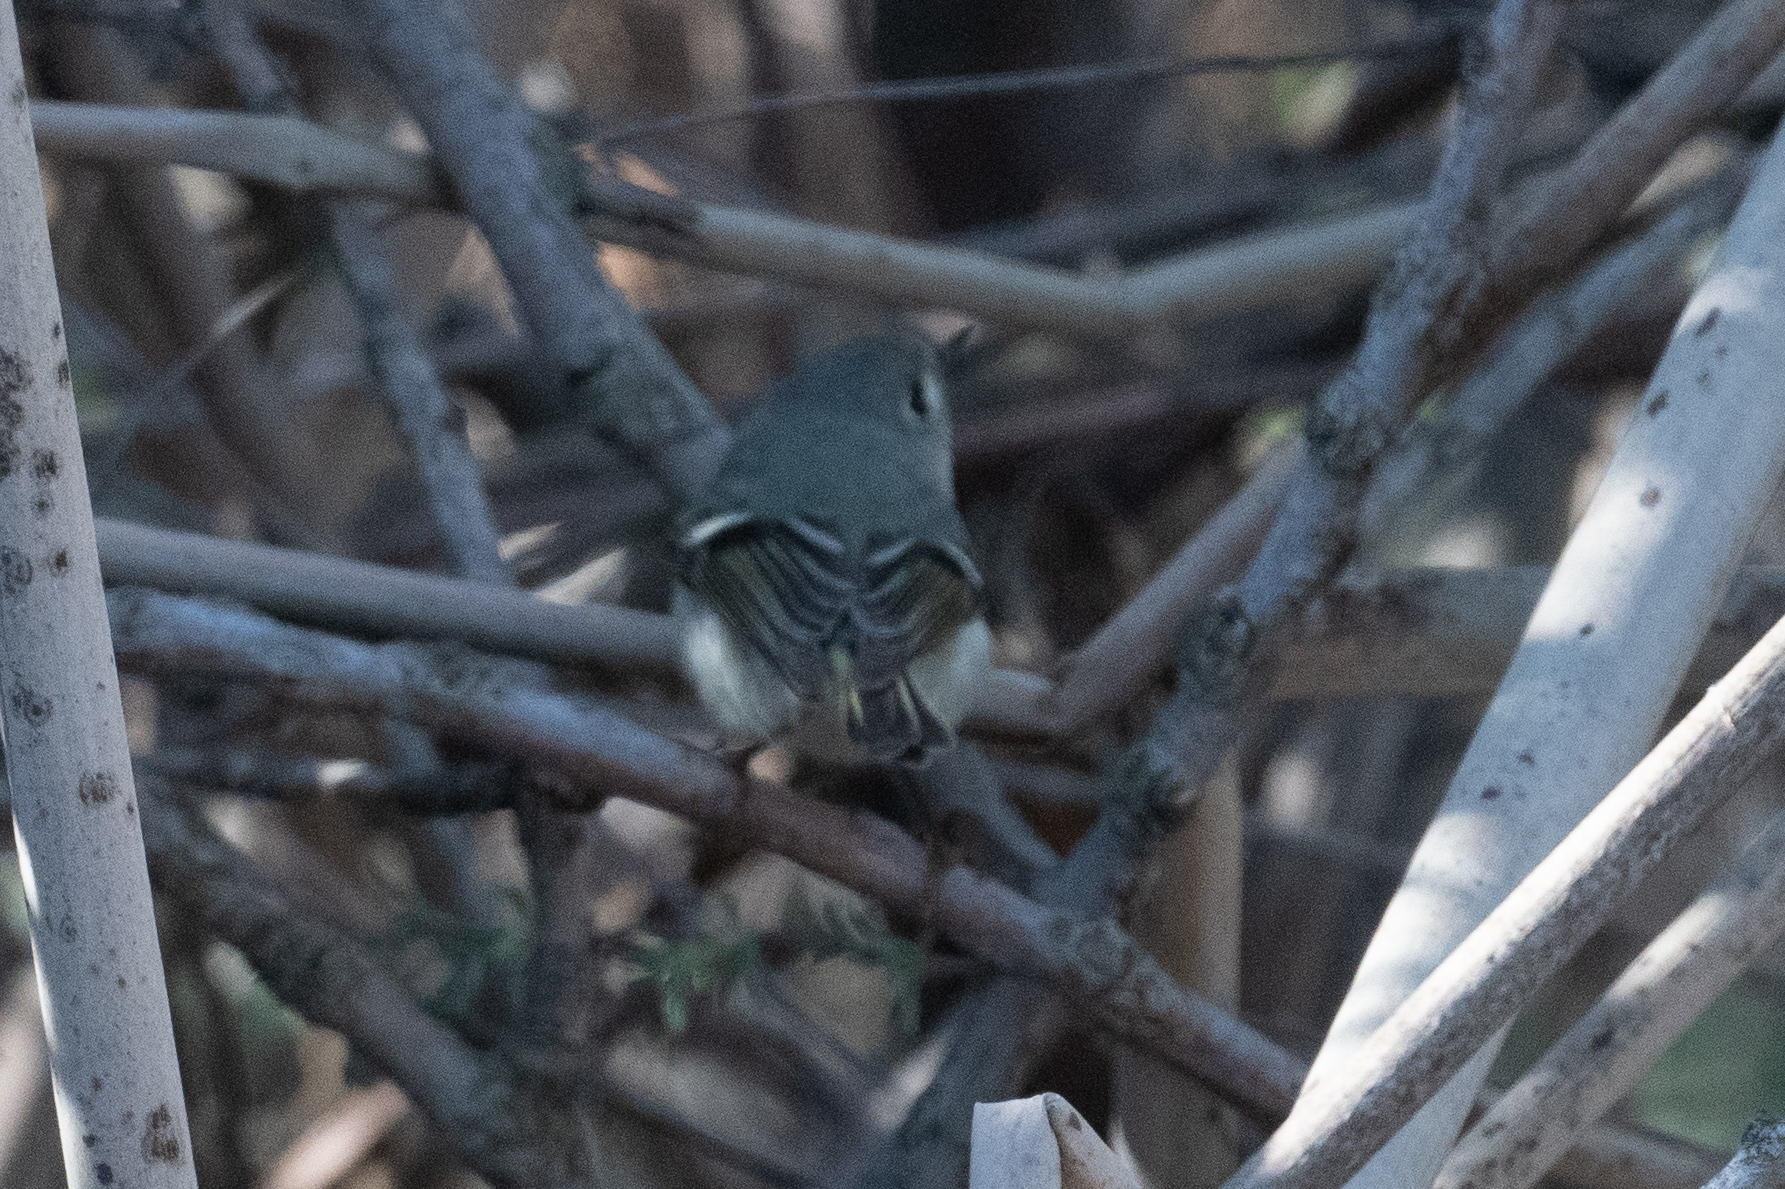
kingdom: Animalia
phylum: Chordata
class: Aves
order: Passeriformes
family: Regulidae
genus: Regulus
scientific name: Regulus calendula
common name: Ruby-crowned kinglet
